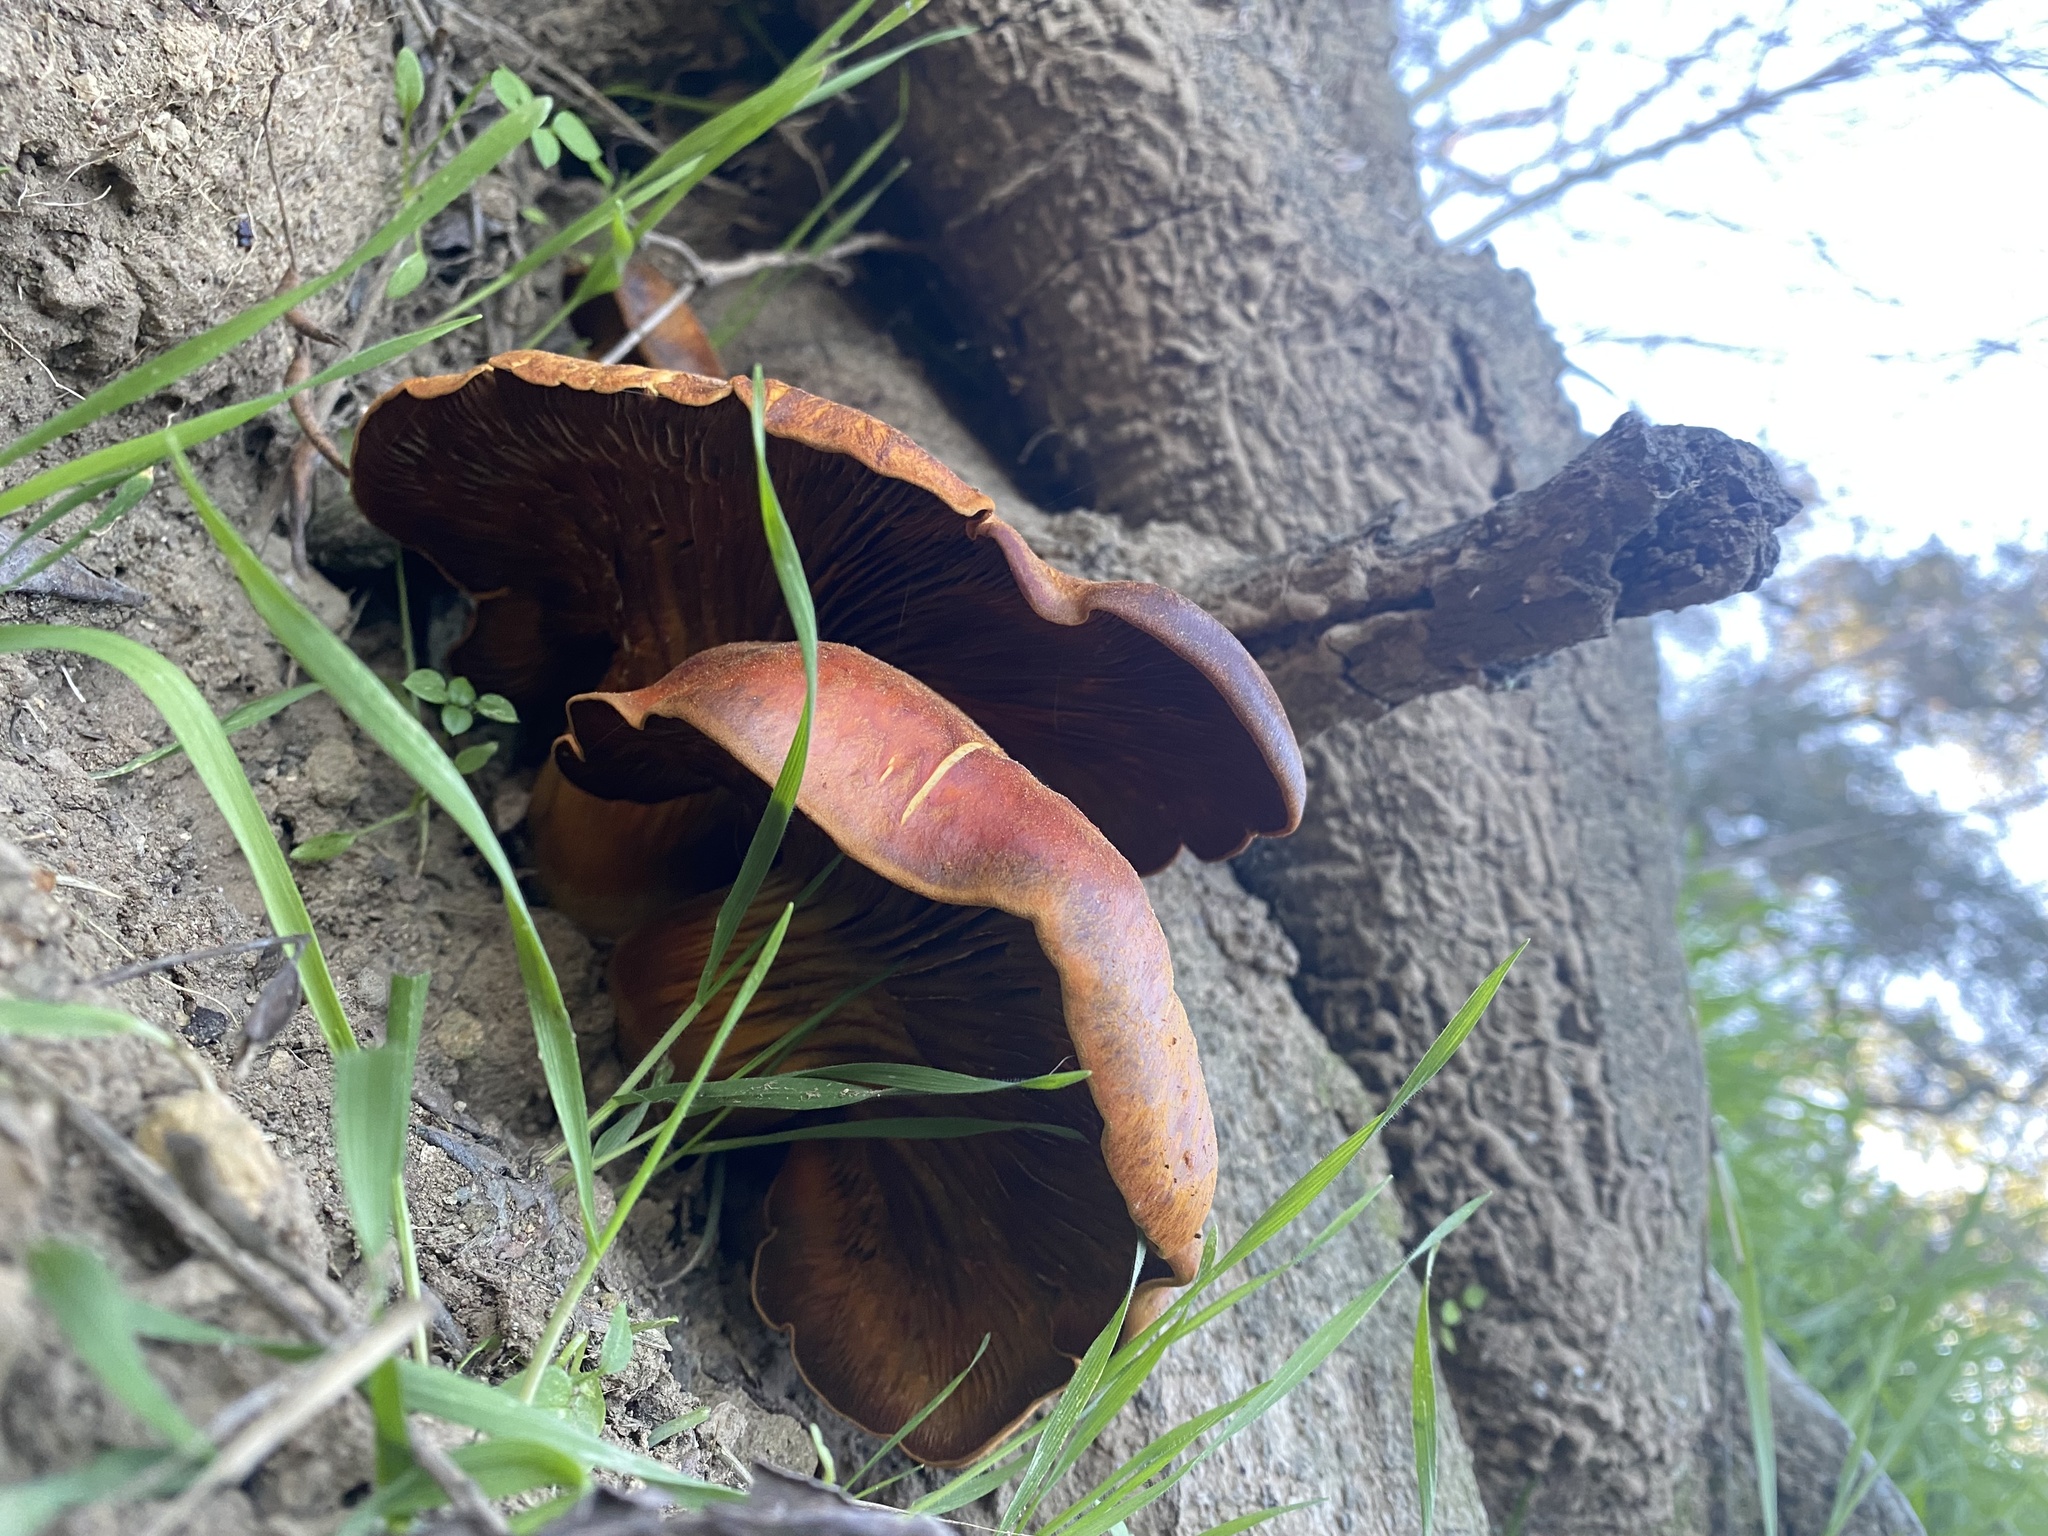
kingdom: Fungi
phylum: Basidiomycota
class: Agaricomycetes
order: Agaricales
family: Omphalotaceae
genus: Omphalotus
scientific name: Omphalotus olivascens
